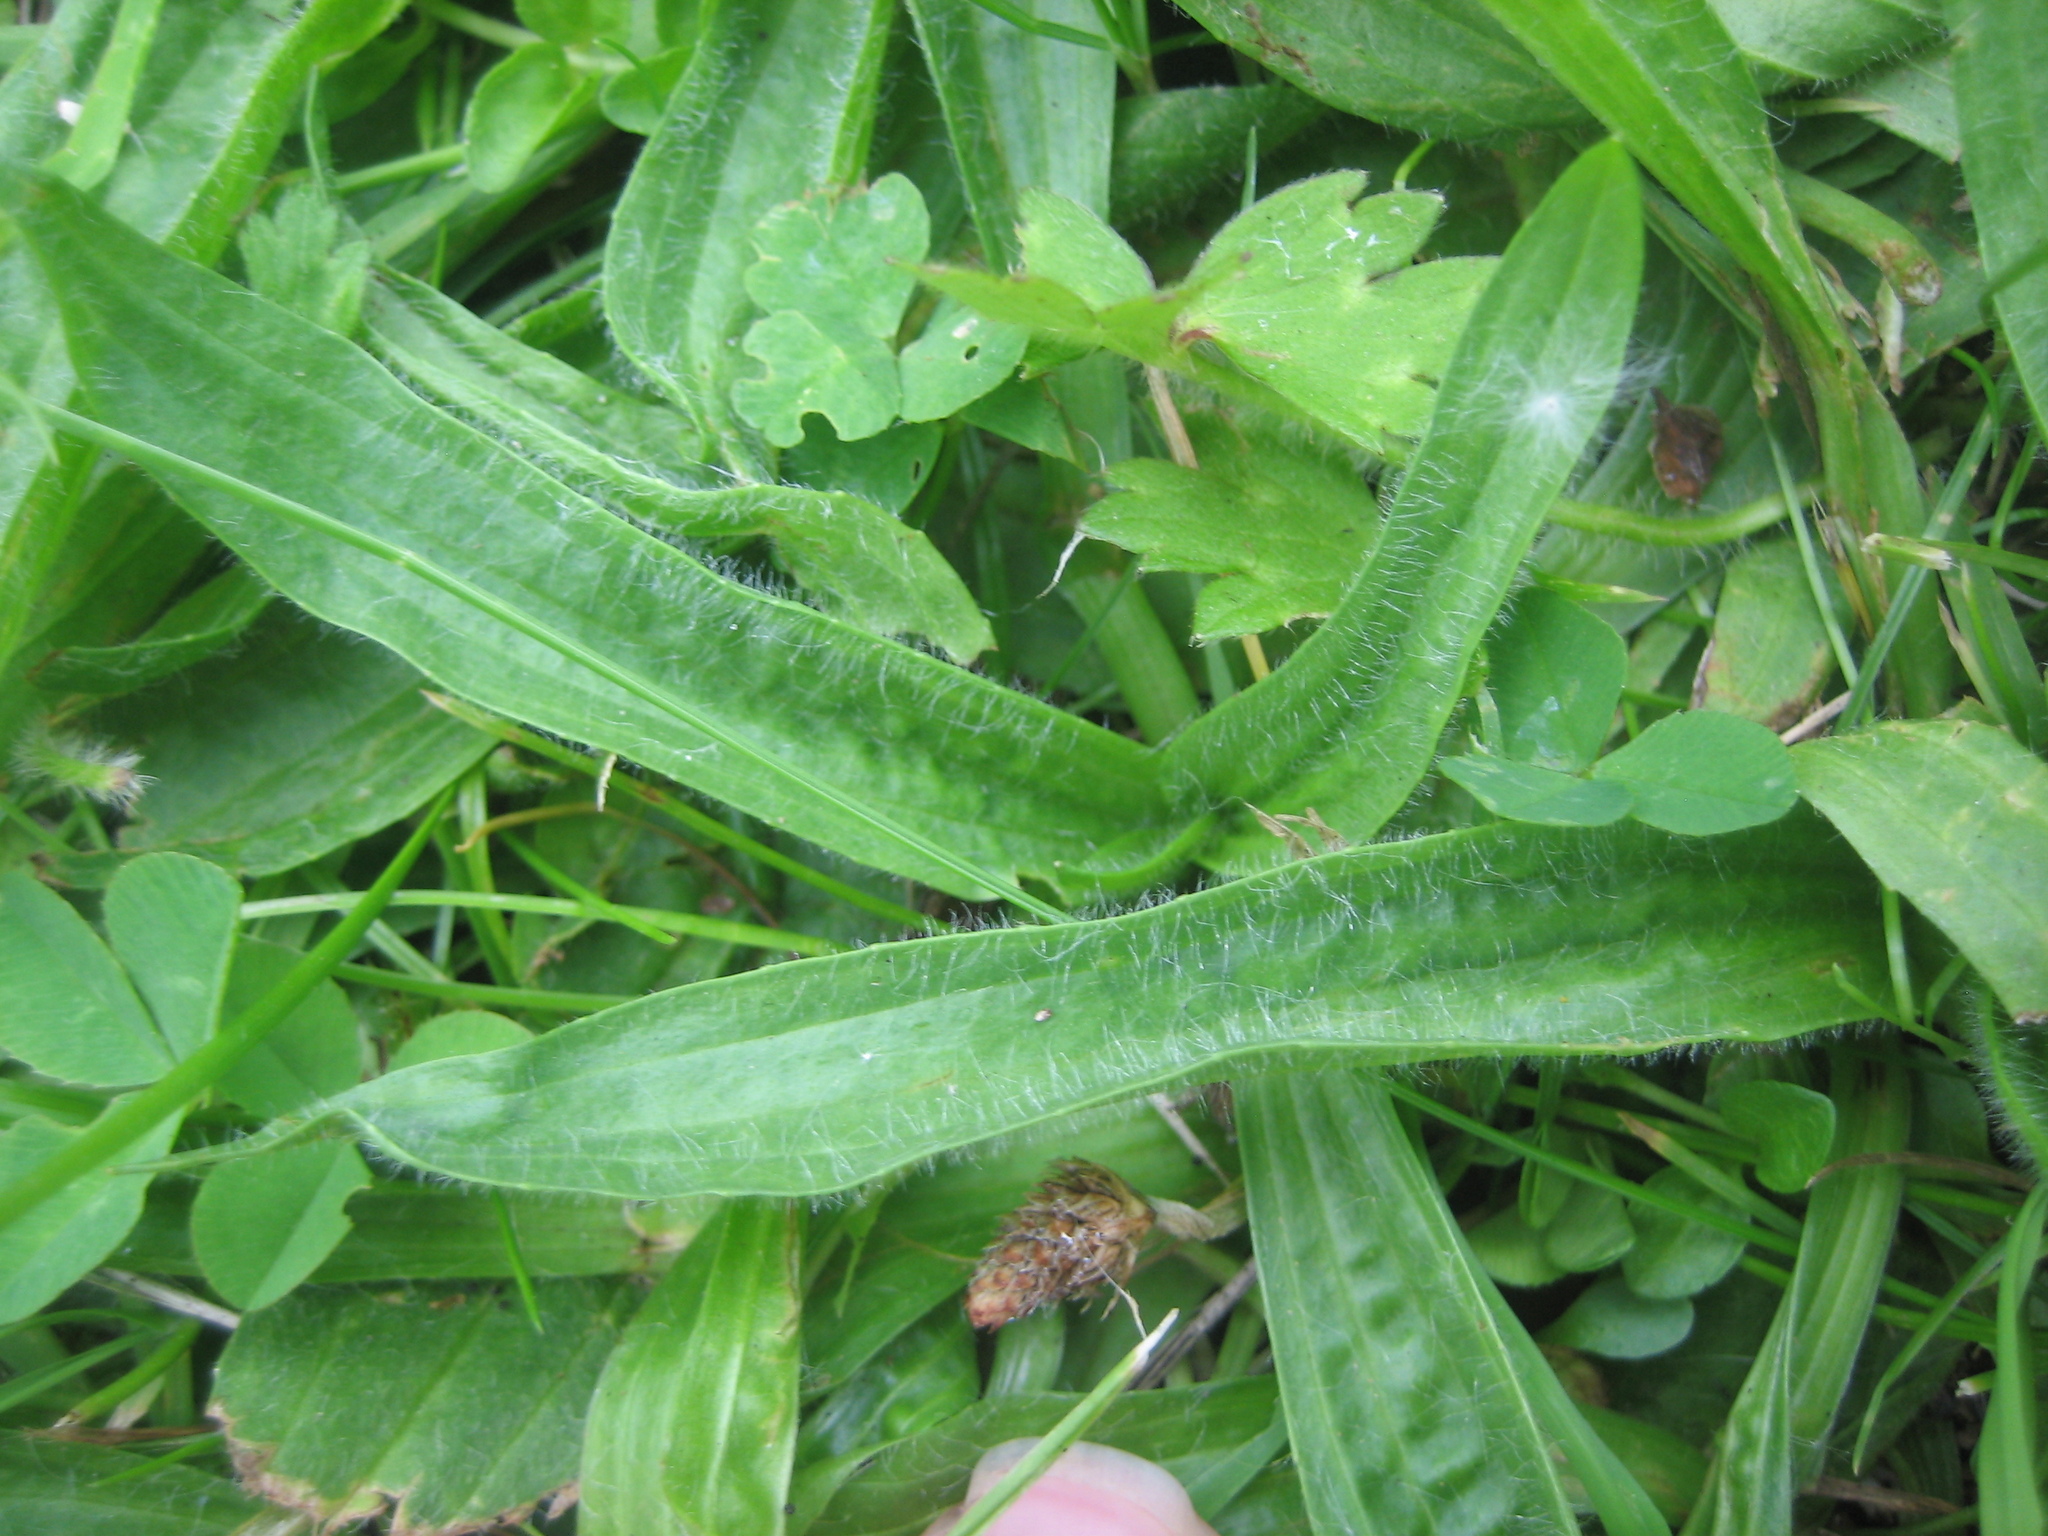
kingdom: Plantae
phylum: Tracheophyta
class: Magnoliopsida
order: Lamiales
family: Plantaginaceae
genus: Plantago
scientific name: Plantago lanceolata
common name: Ribwort plantain
